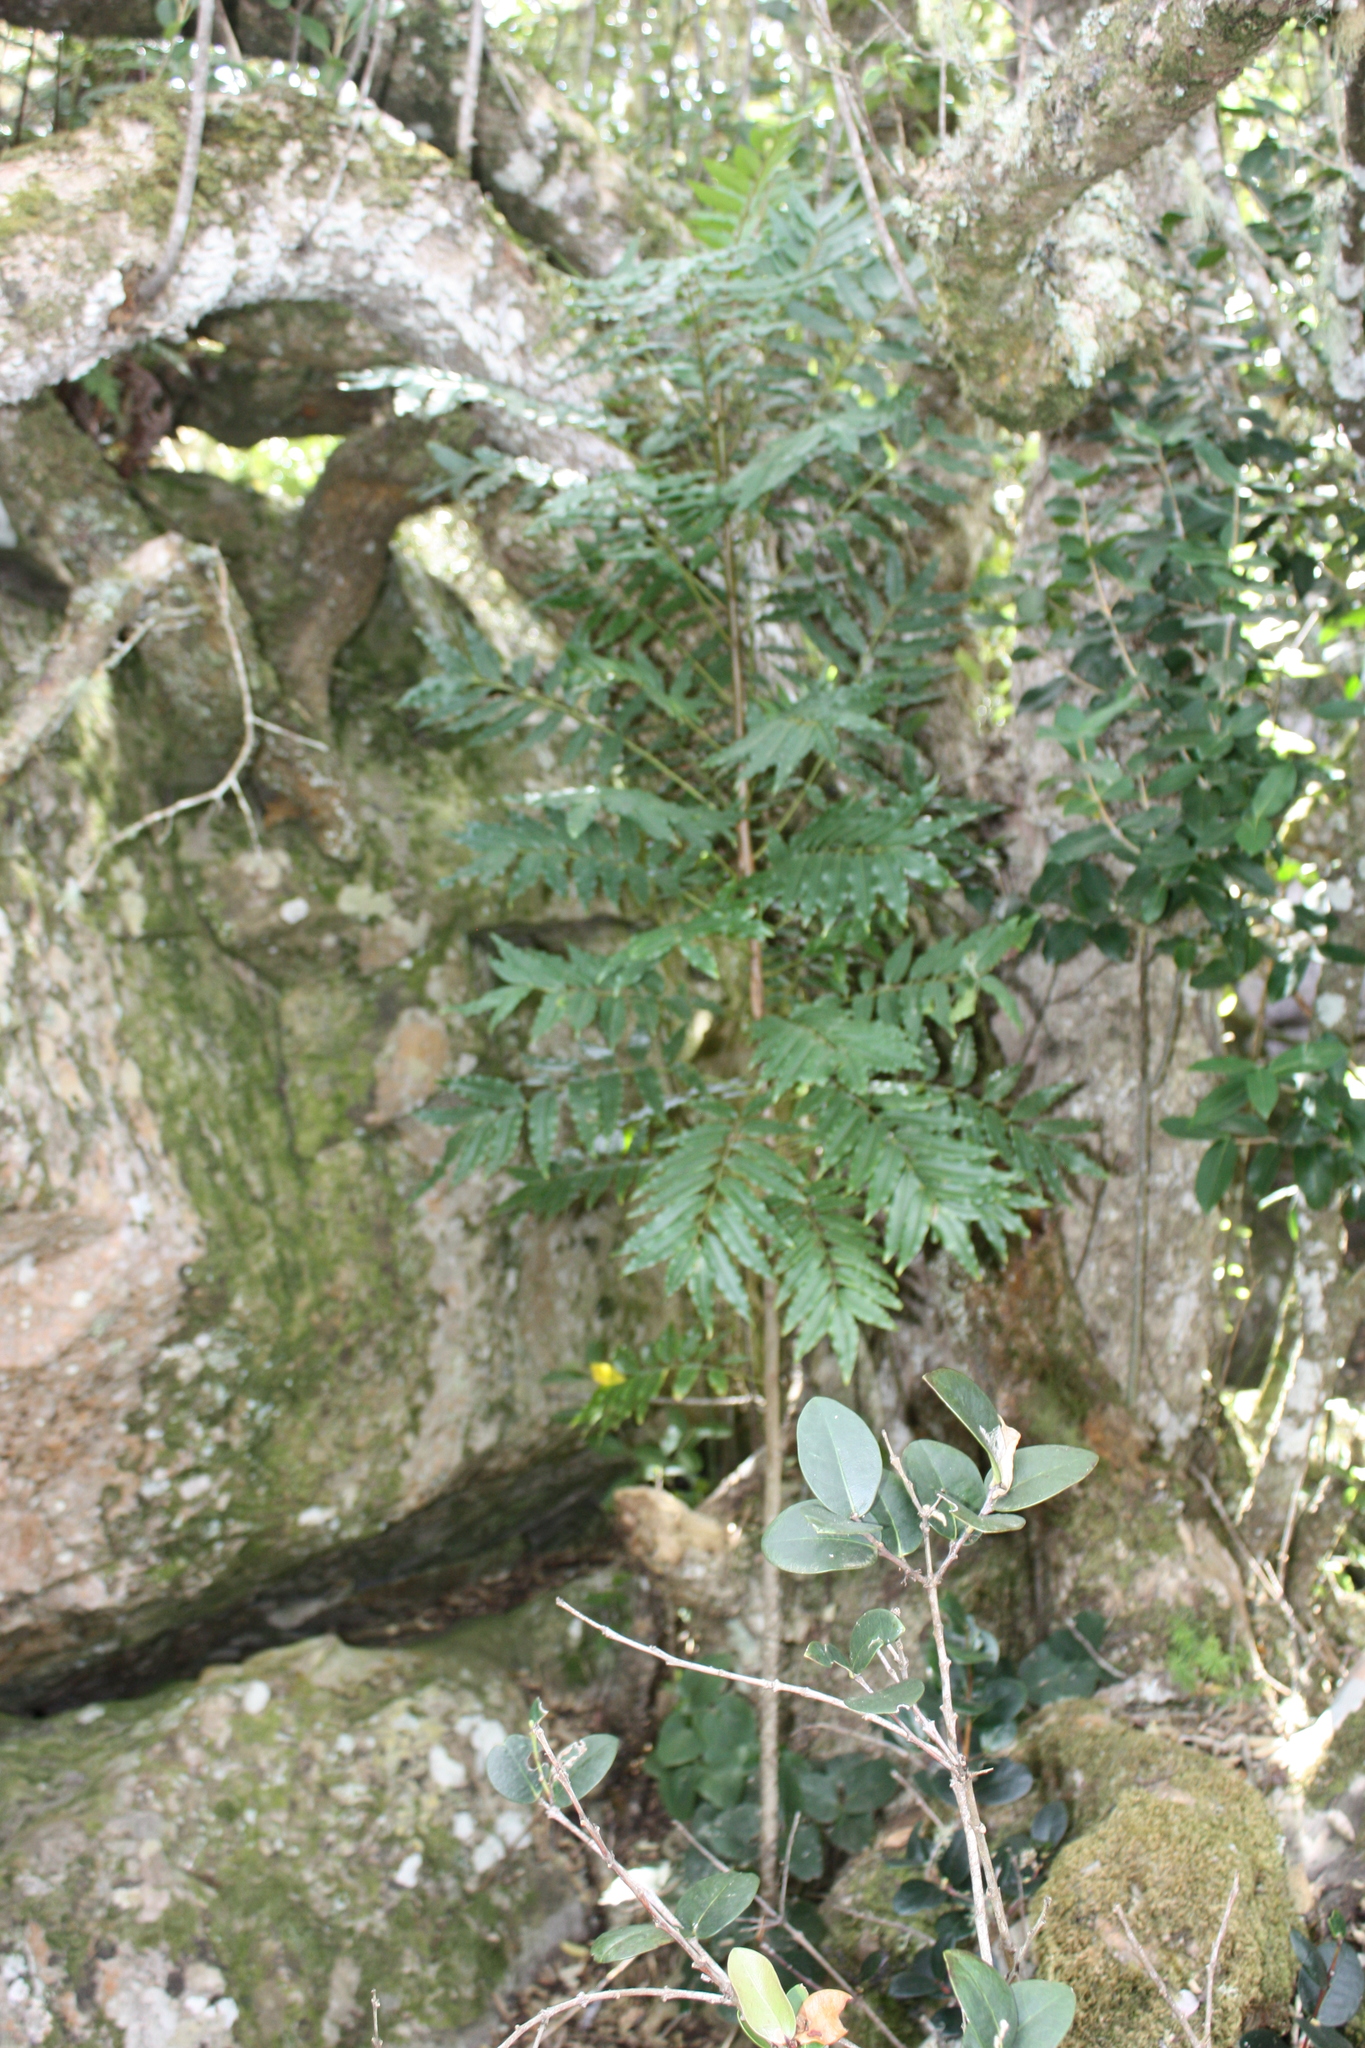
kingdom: Plantae
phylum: Tracheophyta
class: Magnoliopsida
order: Sapindales
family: Meliaceae
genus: Ekebergia
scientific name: Ekebergia capensis
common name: Cape-ash
